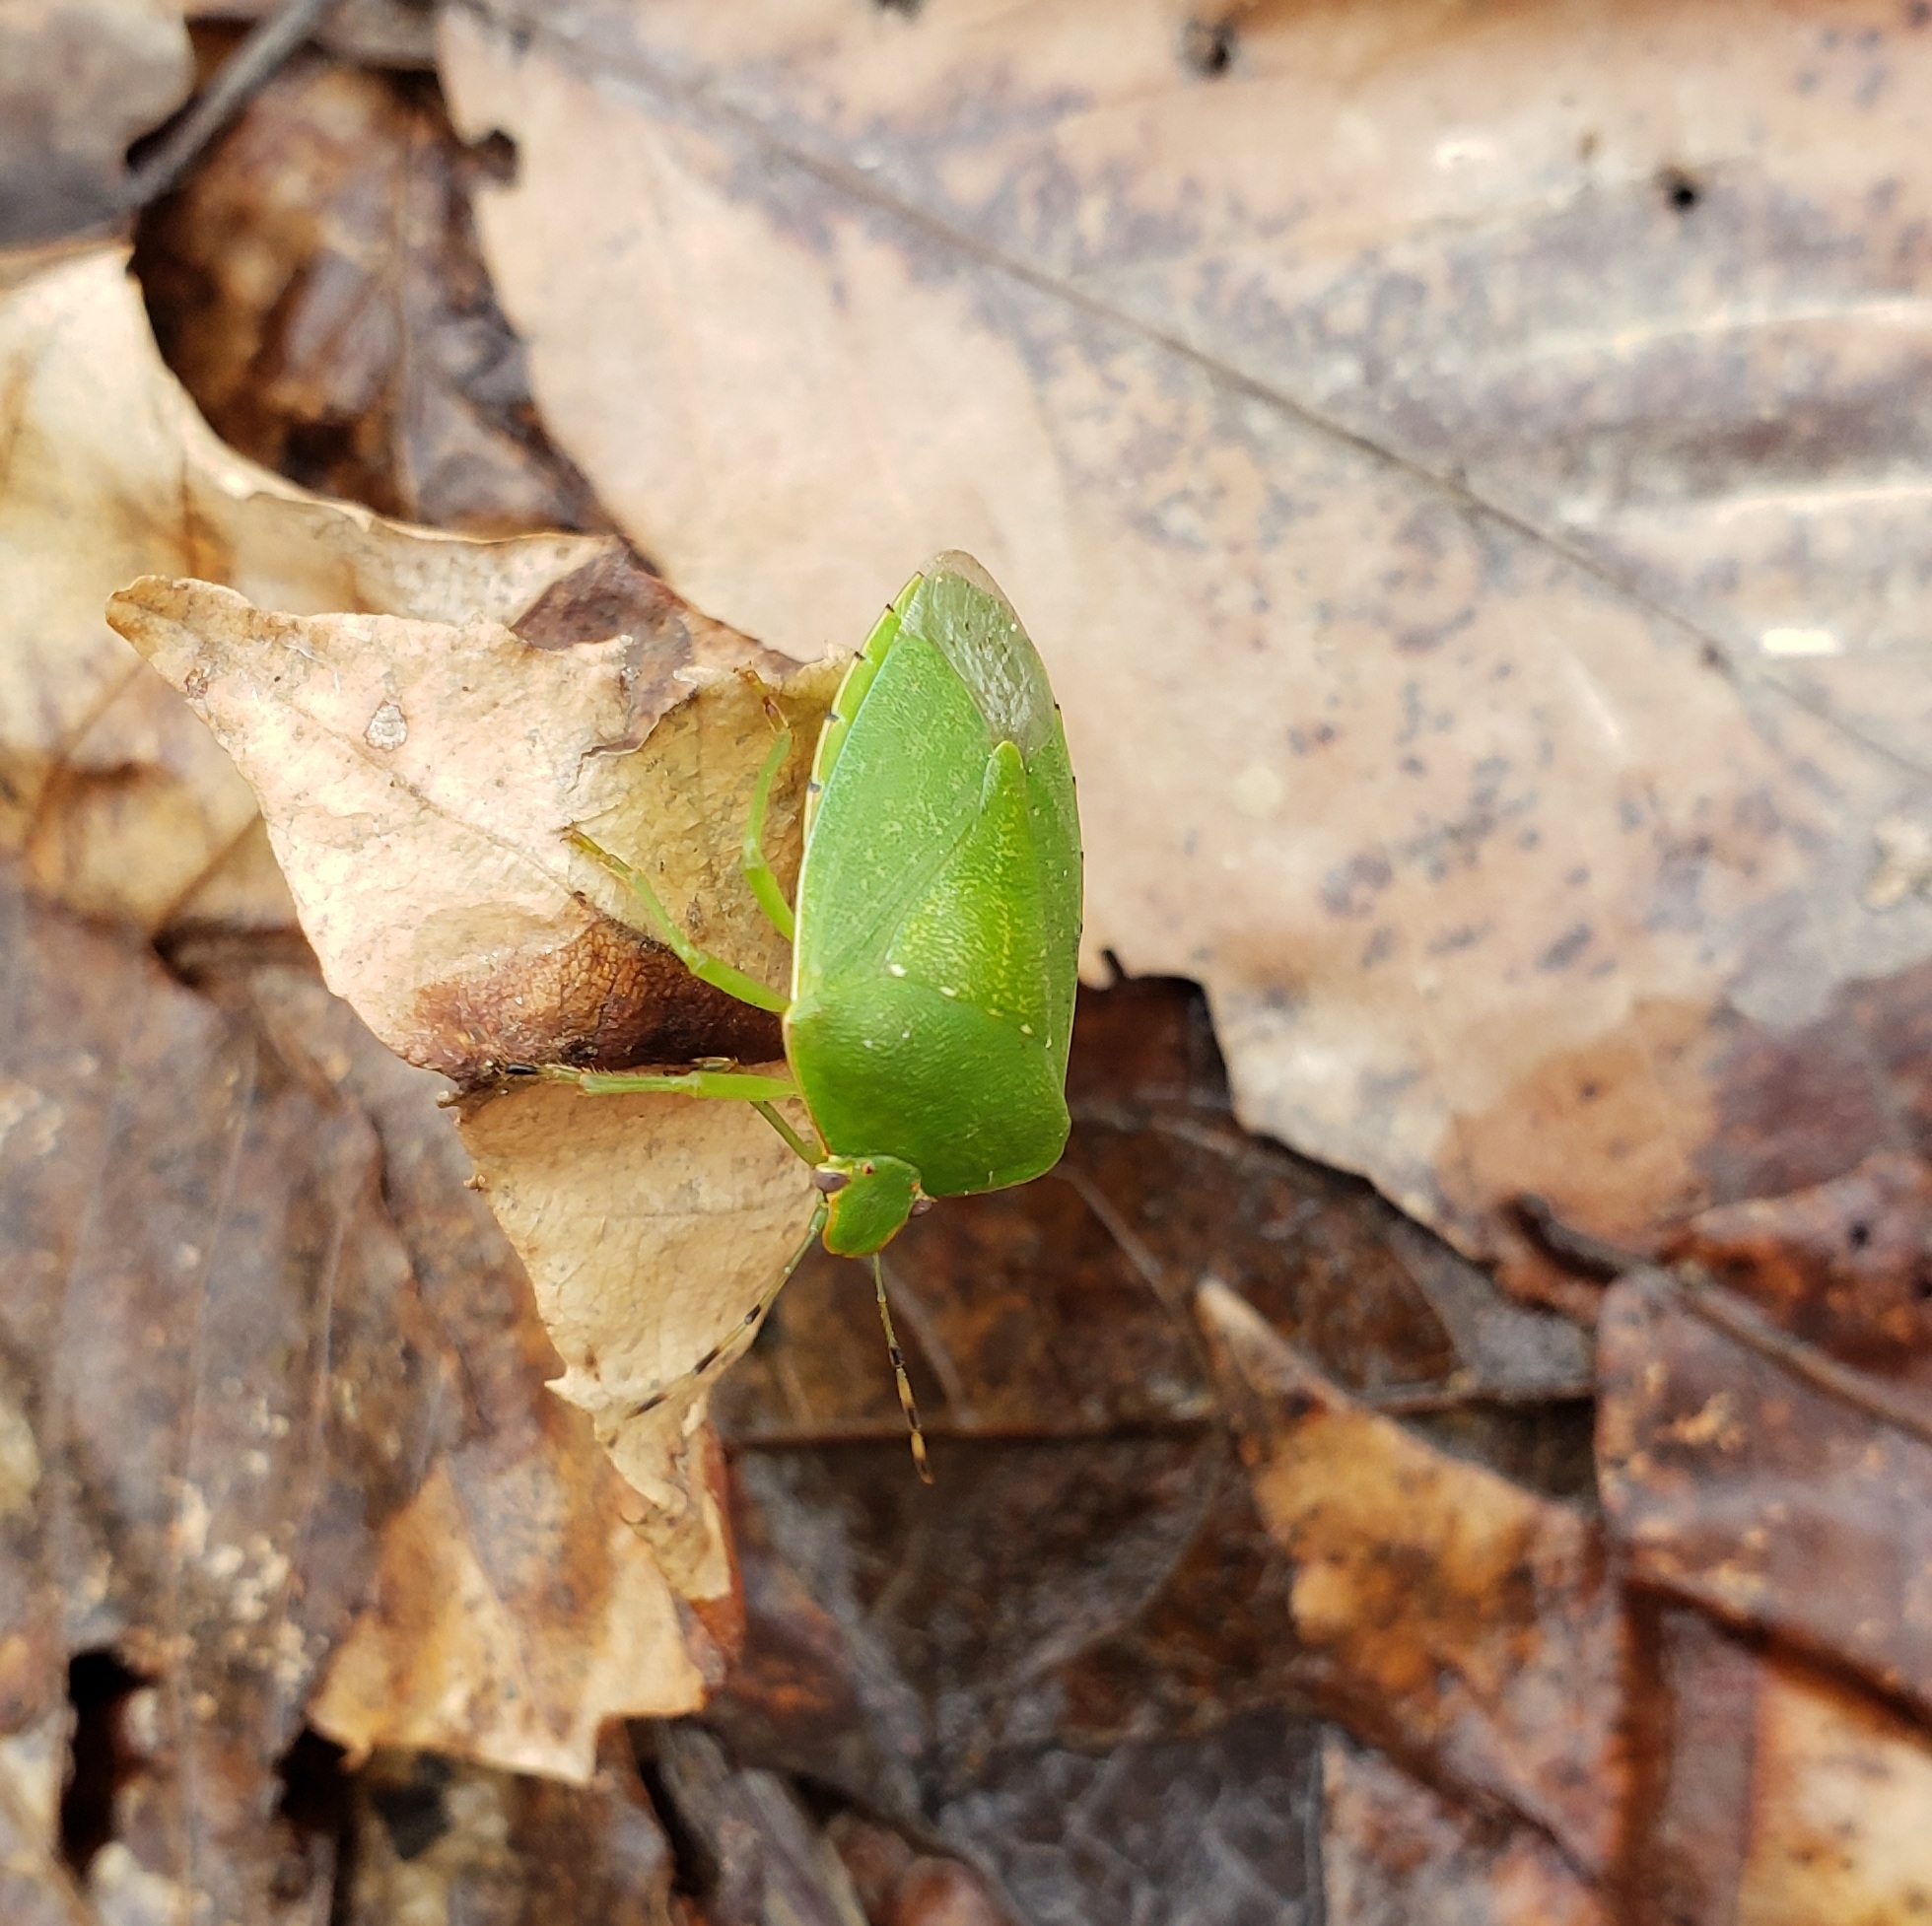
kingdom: Animalia
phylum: Arthropoda
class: Insecta
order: Hemiptera
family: Pentatomidae
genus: Chinavia
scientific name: Chinavia hilaris
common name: Green stink bug
